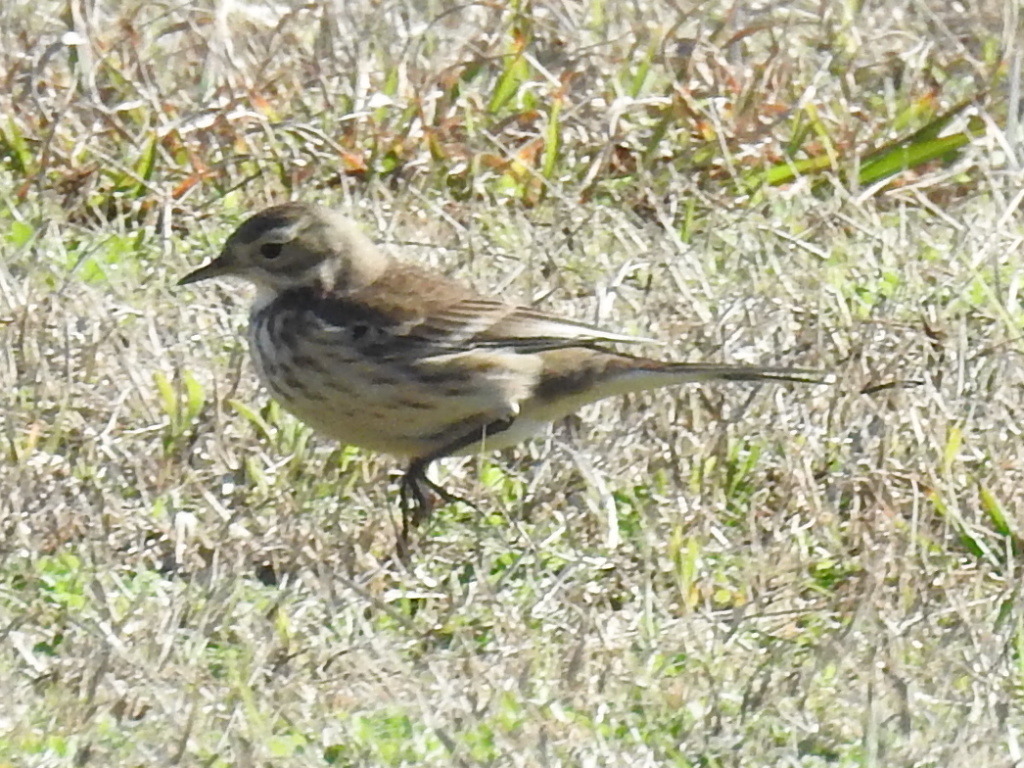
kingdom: Animalia
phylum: Chordata
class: Aves
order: Passeriformes
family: Motacillidae
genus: Anthus
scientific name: Anthus rubescens
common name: Buff-bellied pipit
